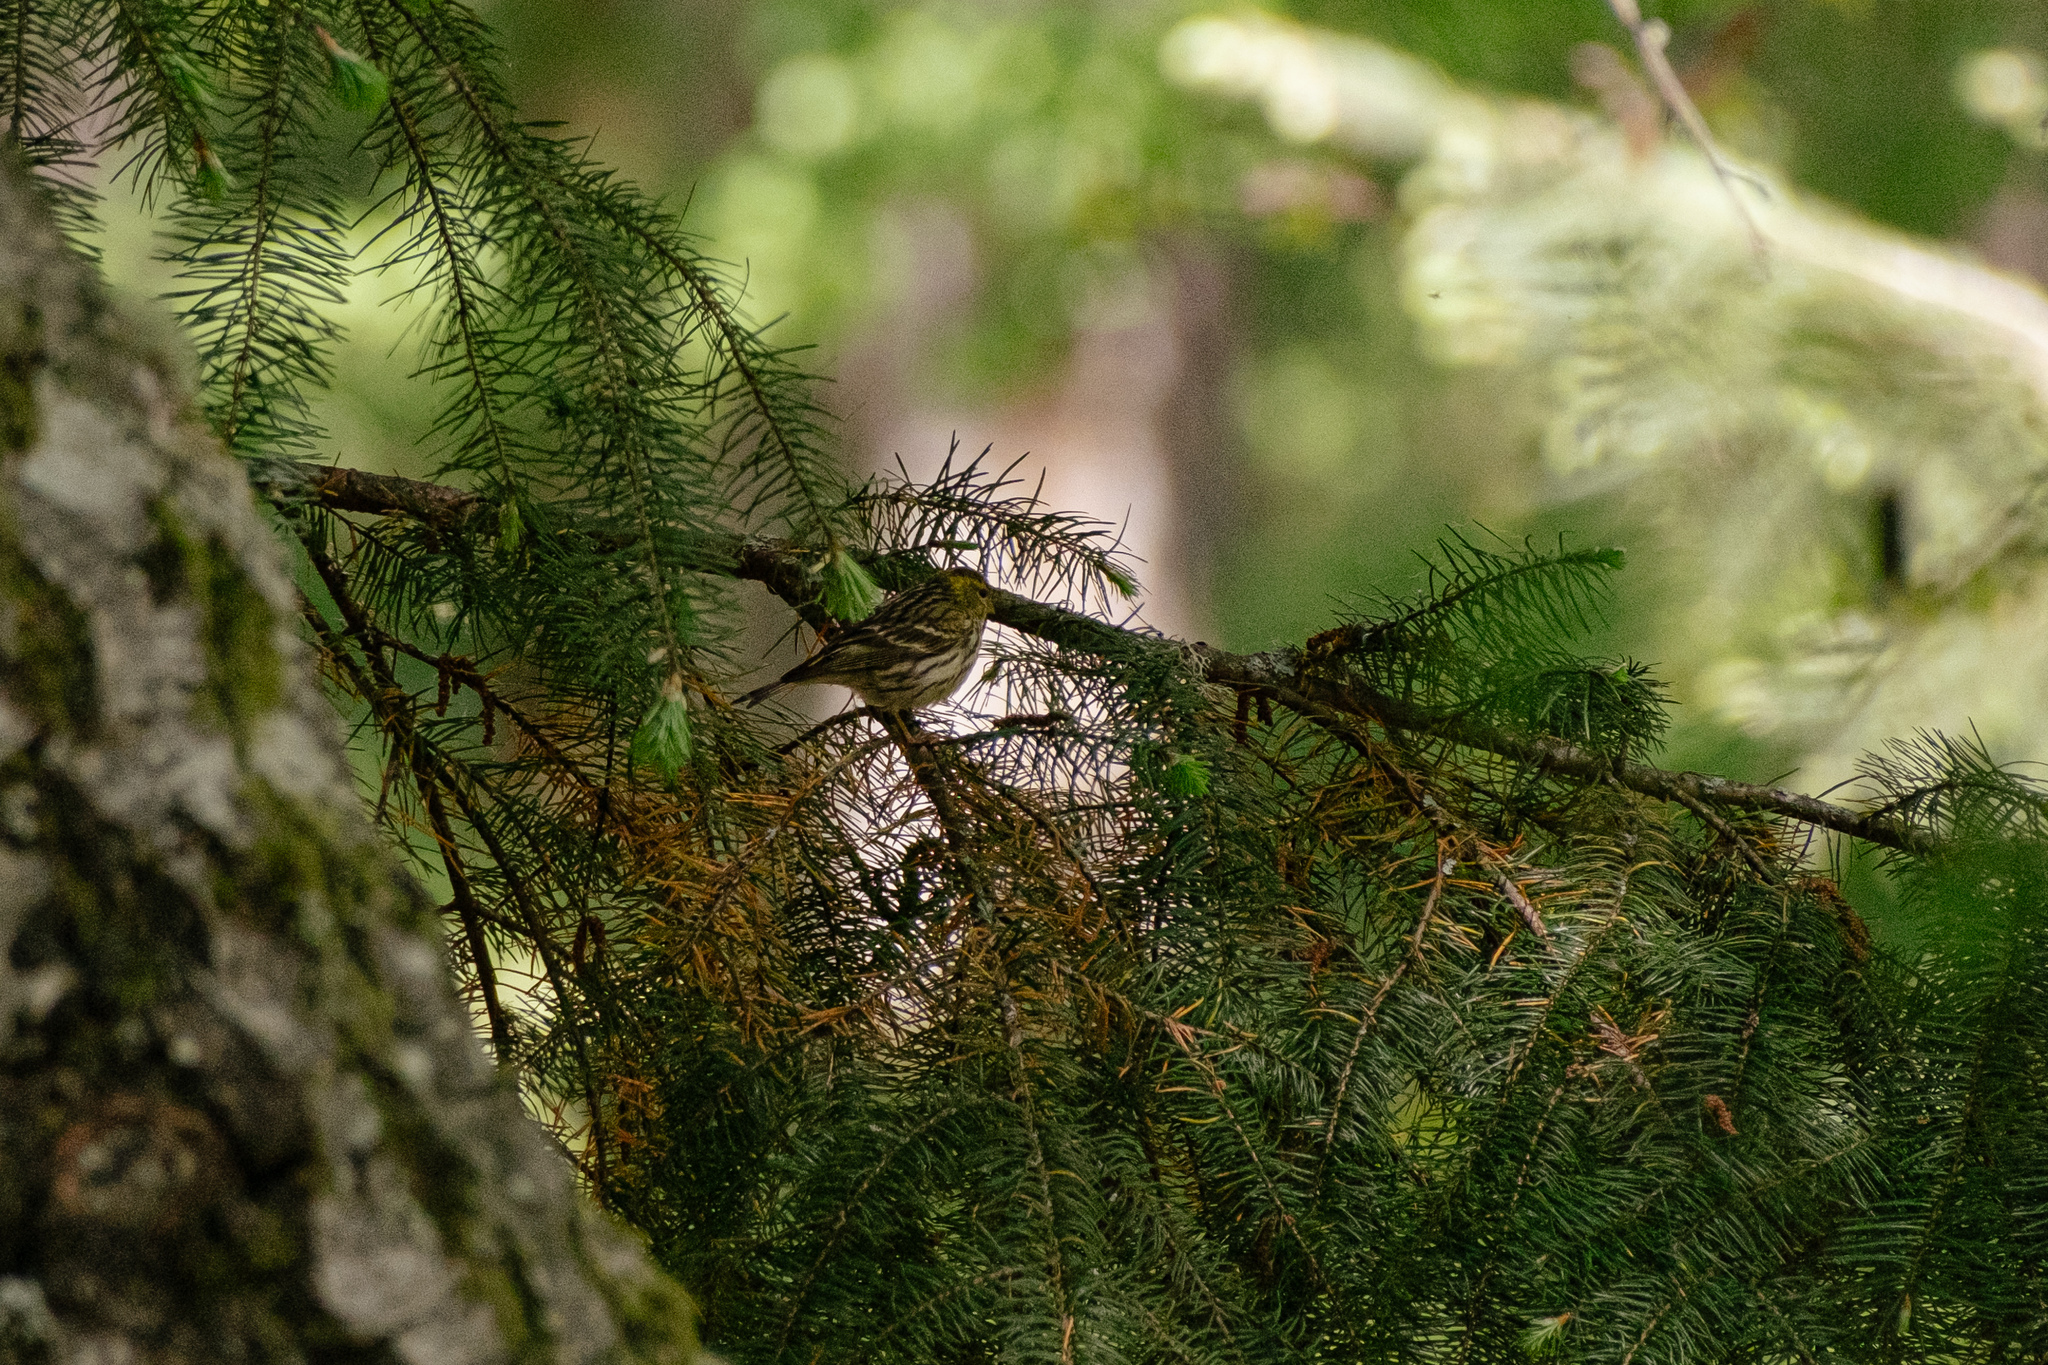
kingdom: Animalia
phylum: Chordata
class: Aves
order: Passeriformes
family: Fringillidae
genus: Serinus
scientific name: Serinus serinus
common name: European serin
